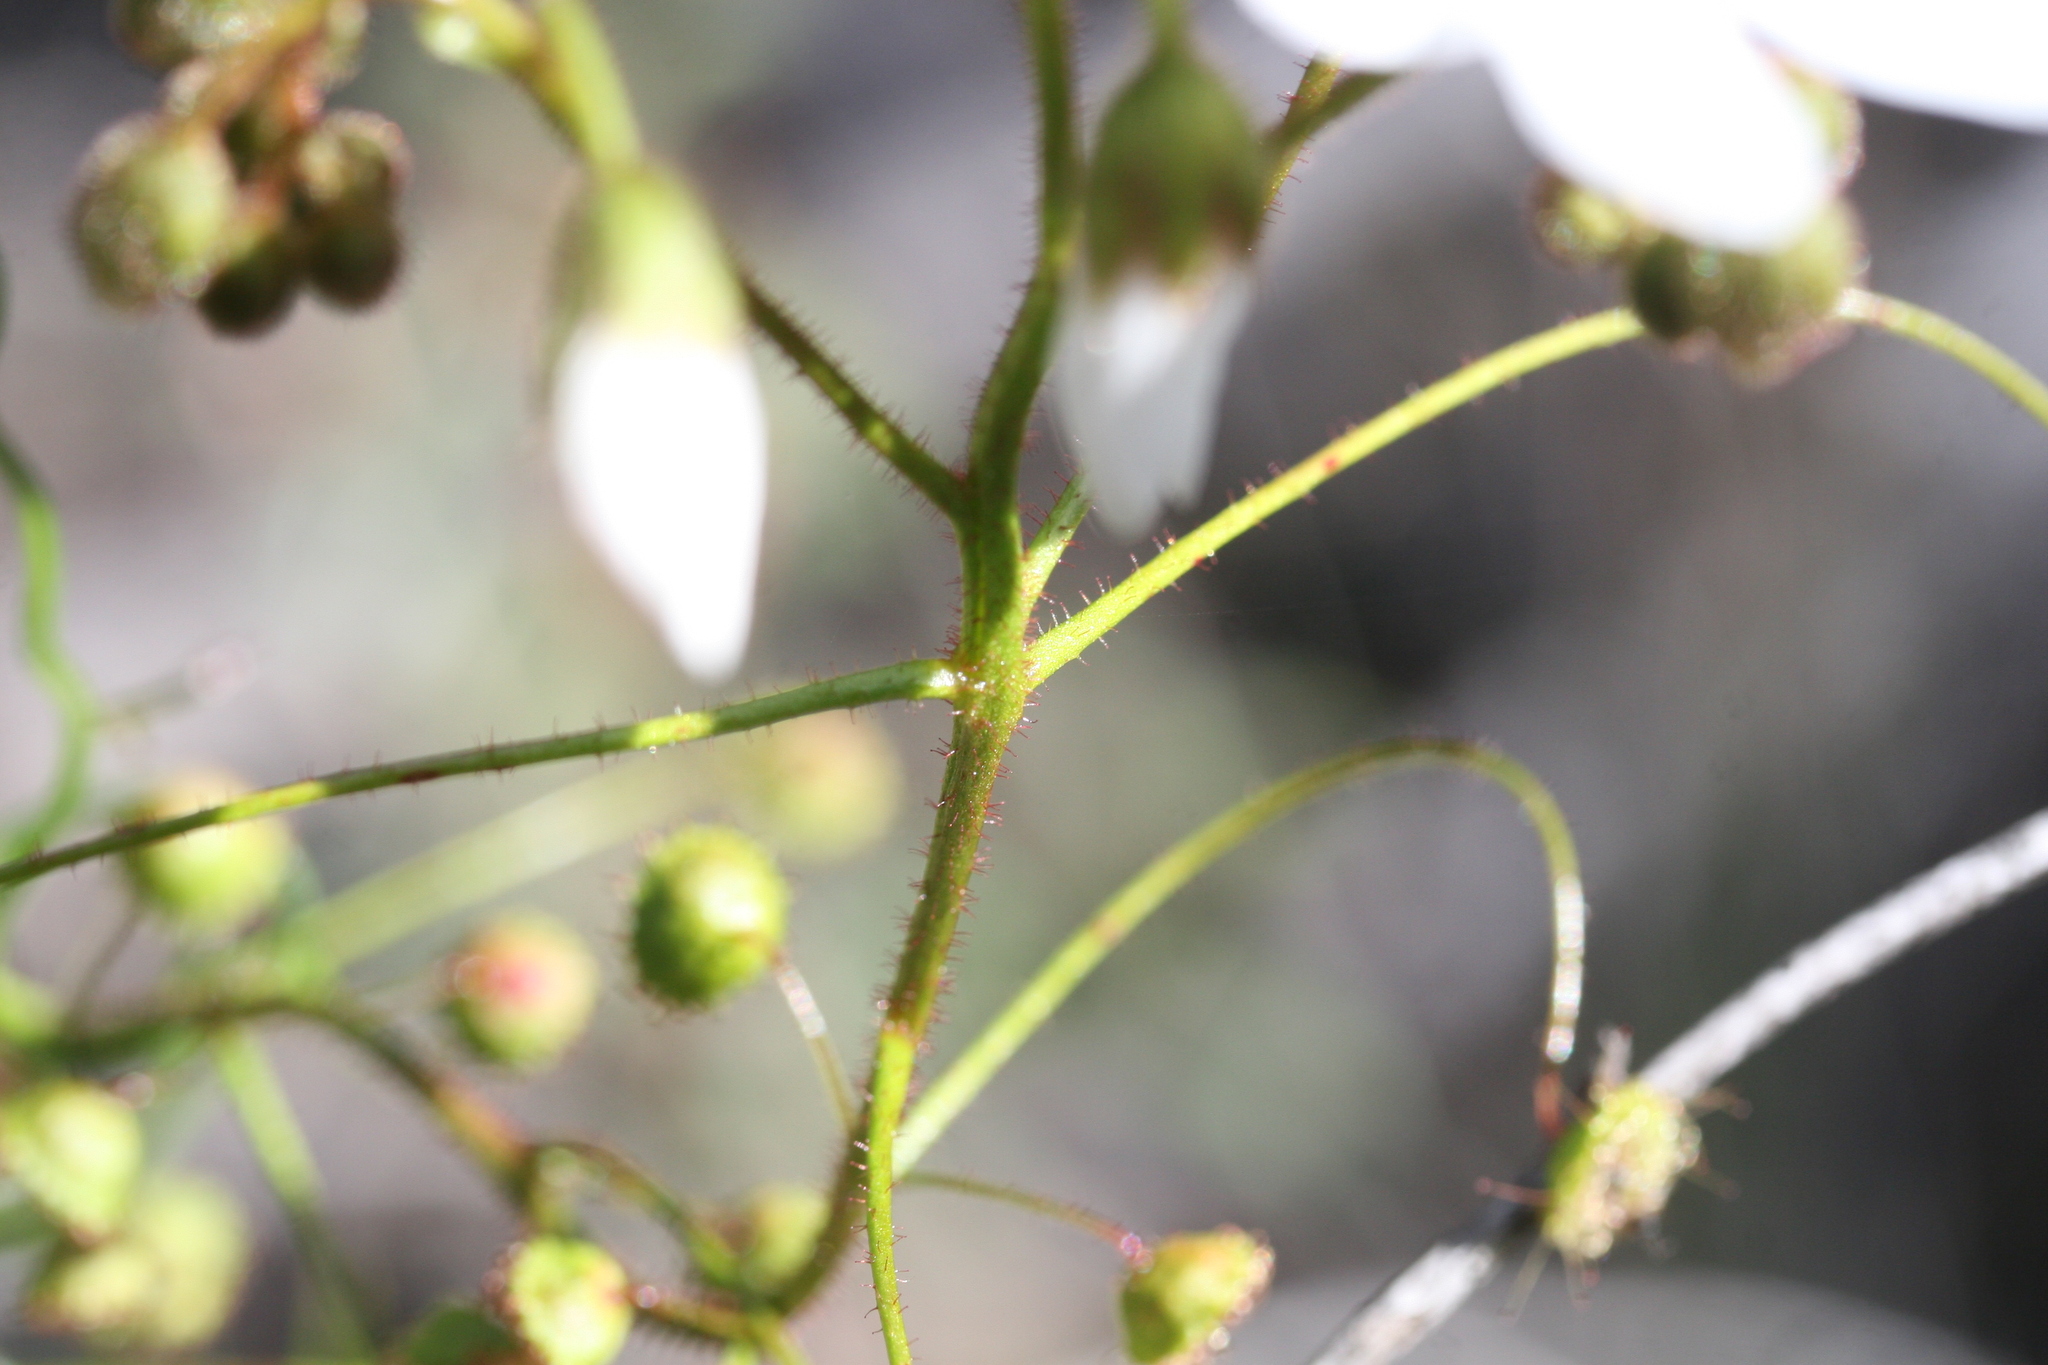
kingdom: Plantae
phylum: Tracheophyta
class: Magnoliopsida
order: Caryophyllales
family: Droseraceae
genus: Drosera
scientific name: Drosera macrantha
